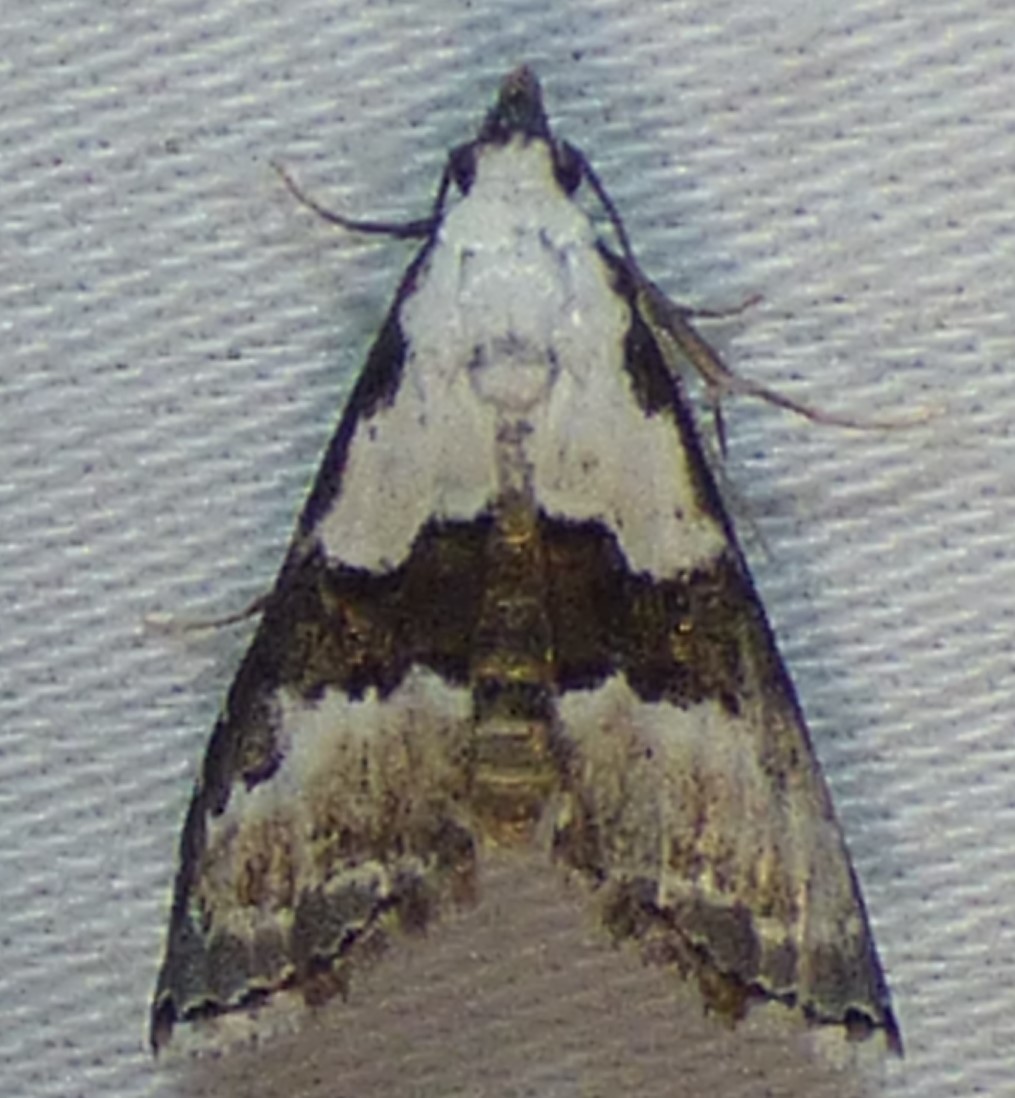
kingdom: Animalia
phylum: Arthropoda
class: Insecta
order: Lepidoptera
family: Noctuidae
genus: Nigetia
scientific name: Nigetia formosalis
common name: Thin-winged owlet
